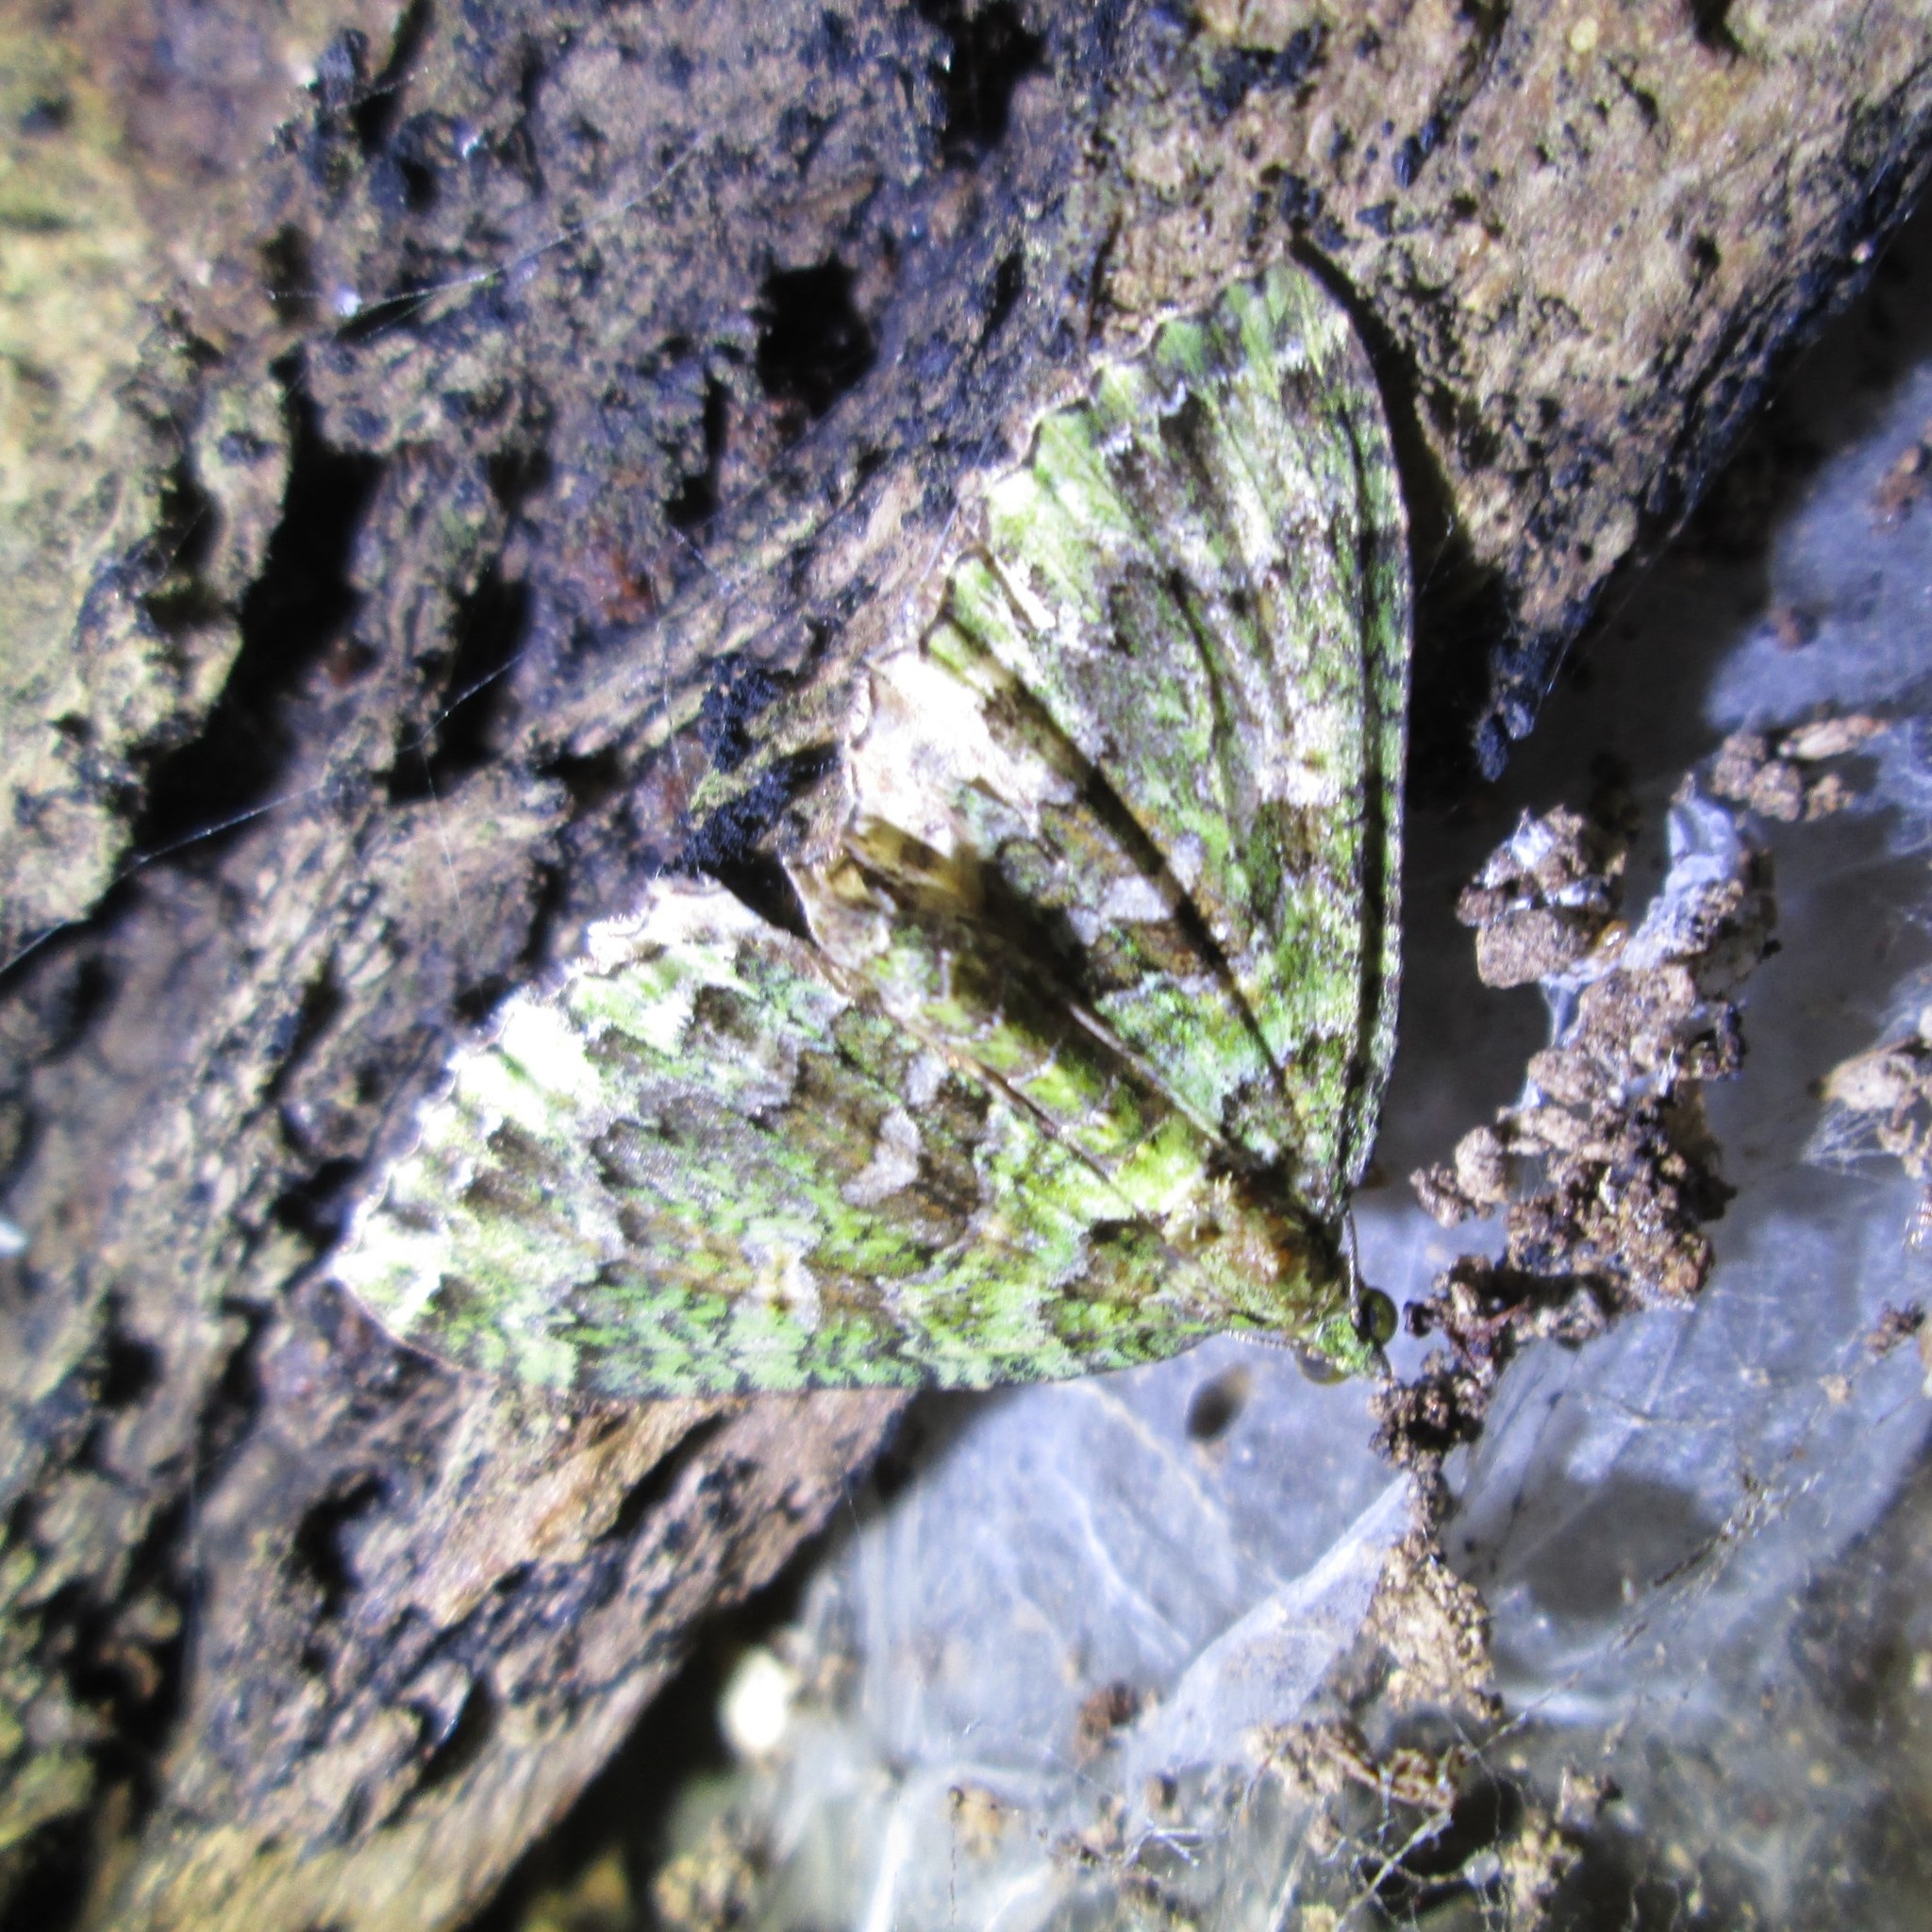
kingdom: Animalia
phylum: Arthropoda
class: Insecta
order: Lepidoptera
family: Geometridae
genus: Austrocidaria
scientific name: Austrocidaria similata
